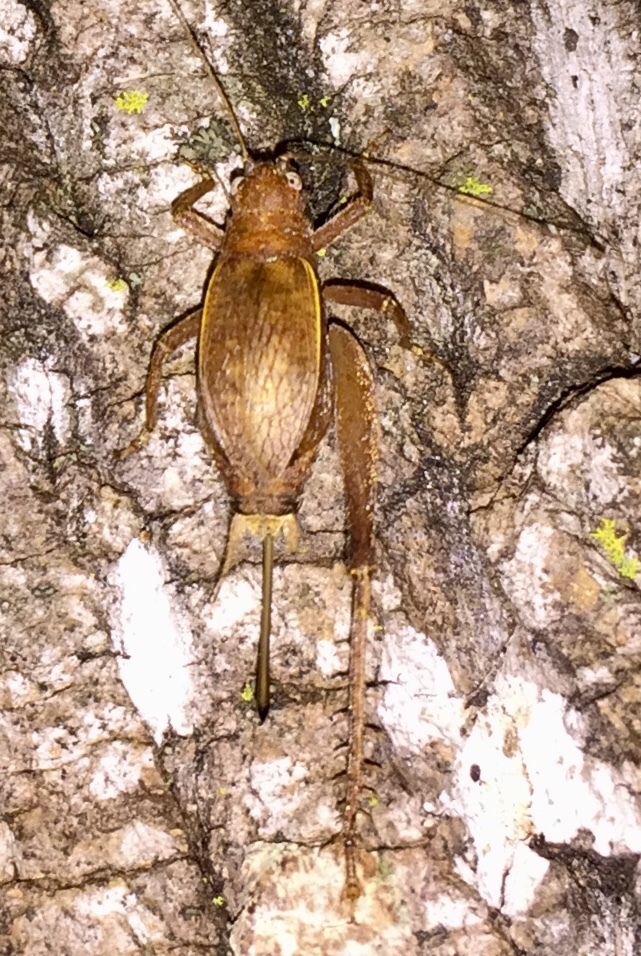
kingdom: Animalia
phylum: Arthropoda
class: Insecta
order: Orthoptera
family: Gryllidae
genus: Hapithus
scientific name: Hapithus agitator
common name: Restless bush cricket
